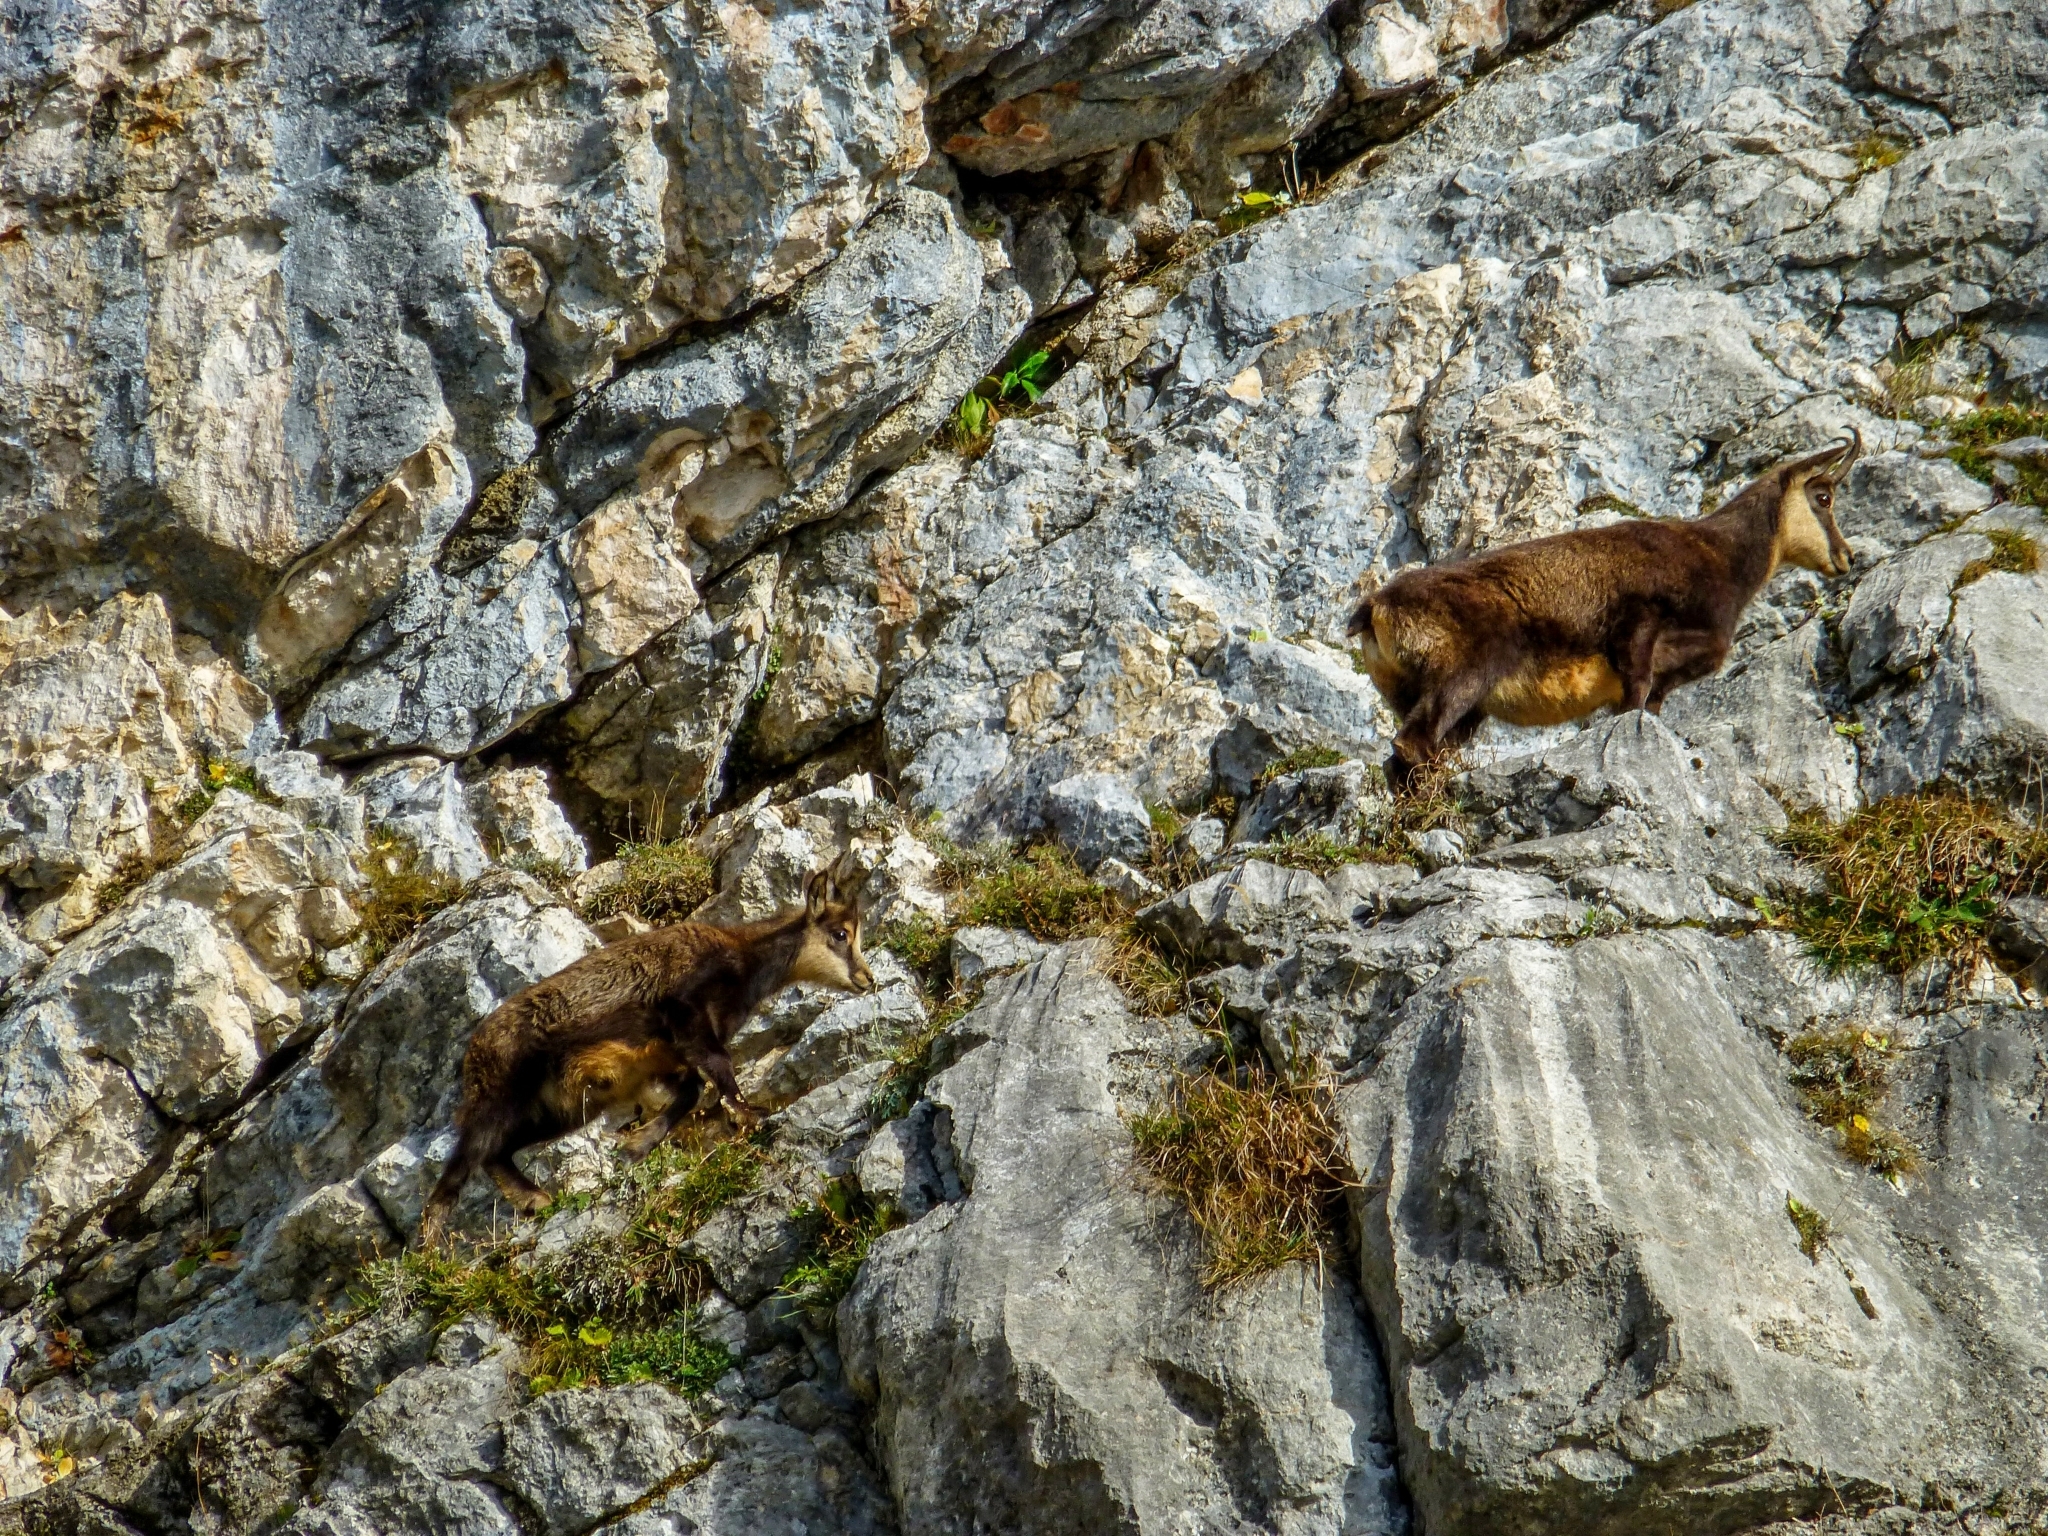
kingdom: Animalia
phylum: Chordata
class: Mammalia
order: Artiodactyla
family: Bovidae
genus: Rupicapra
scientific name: Rupicapra rupicapra
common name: Chamois
